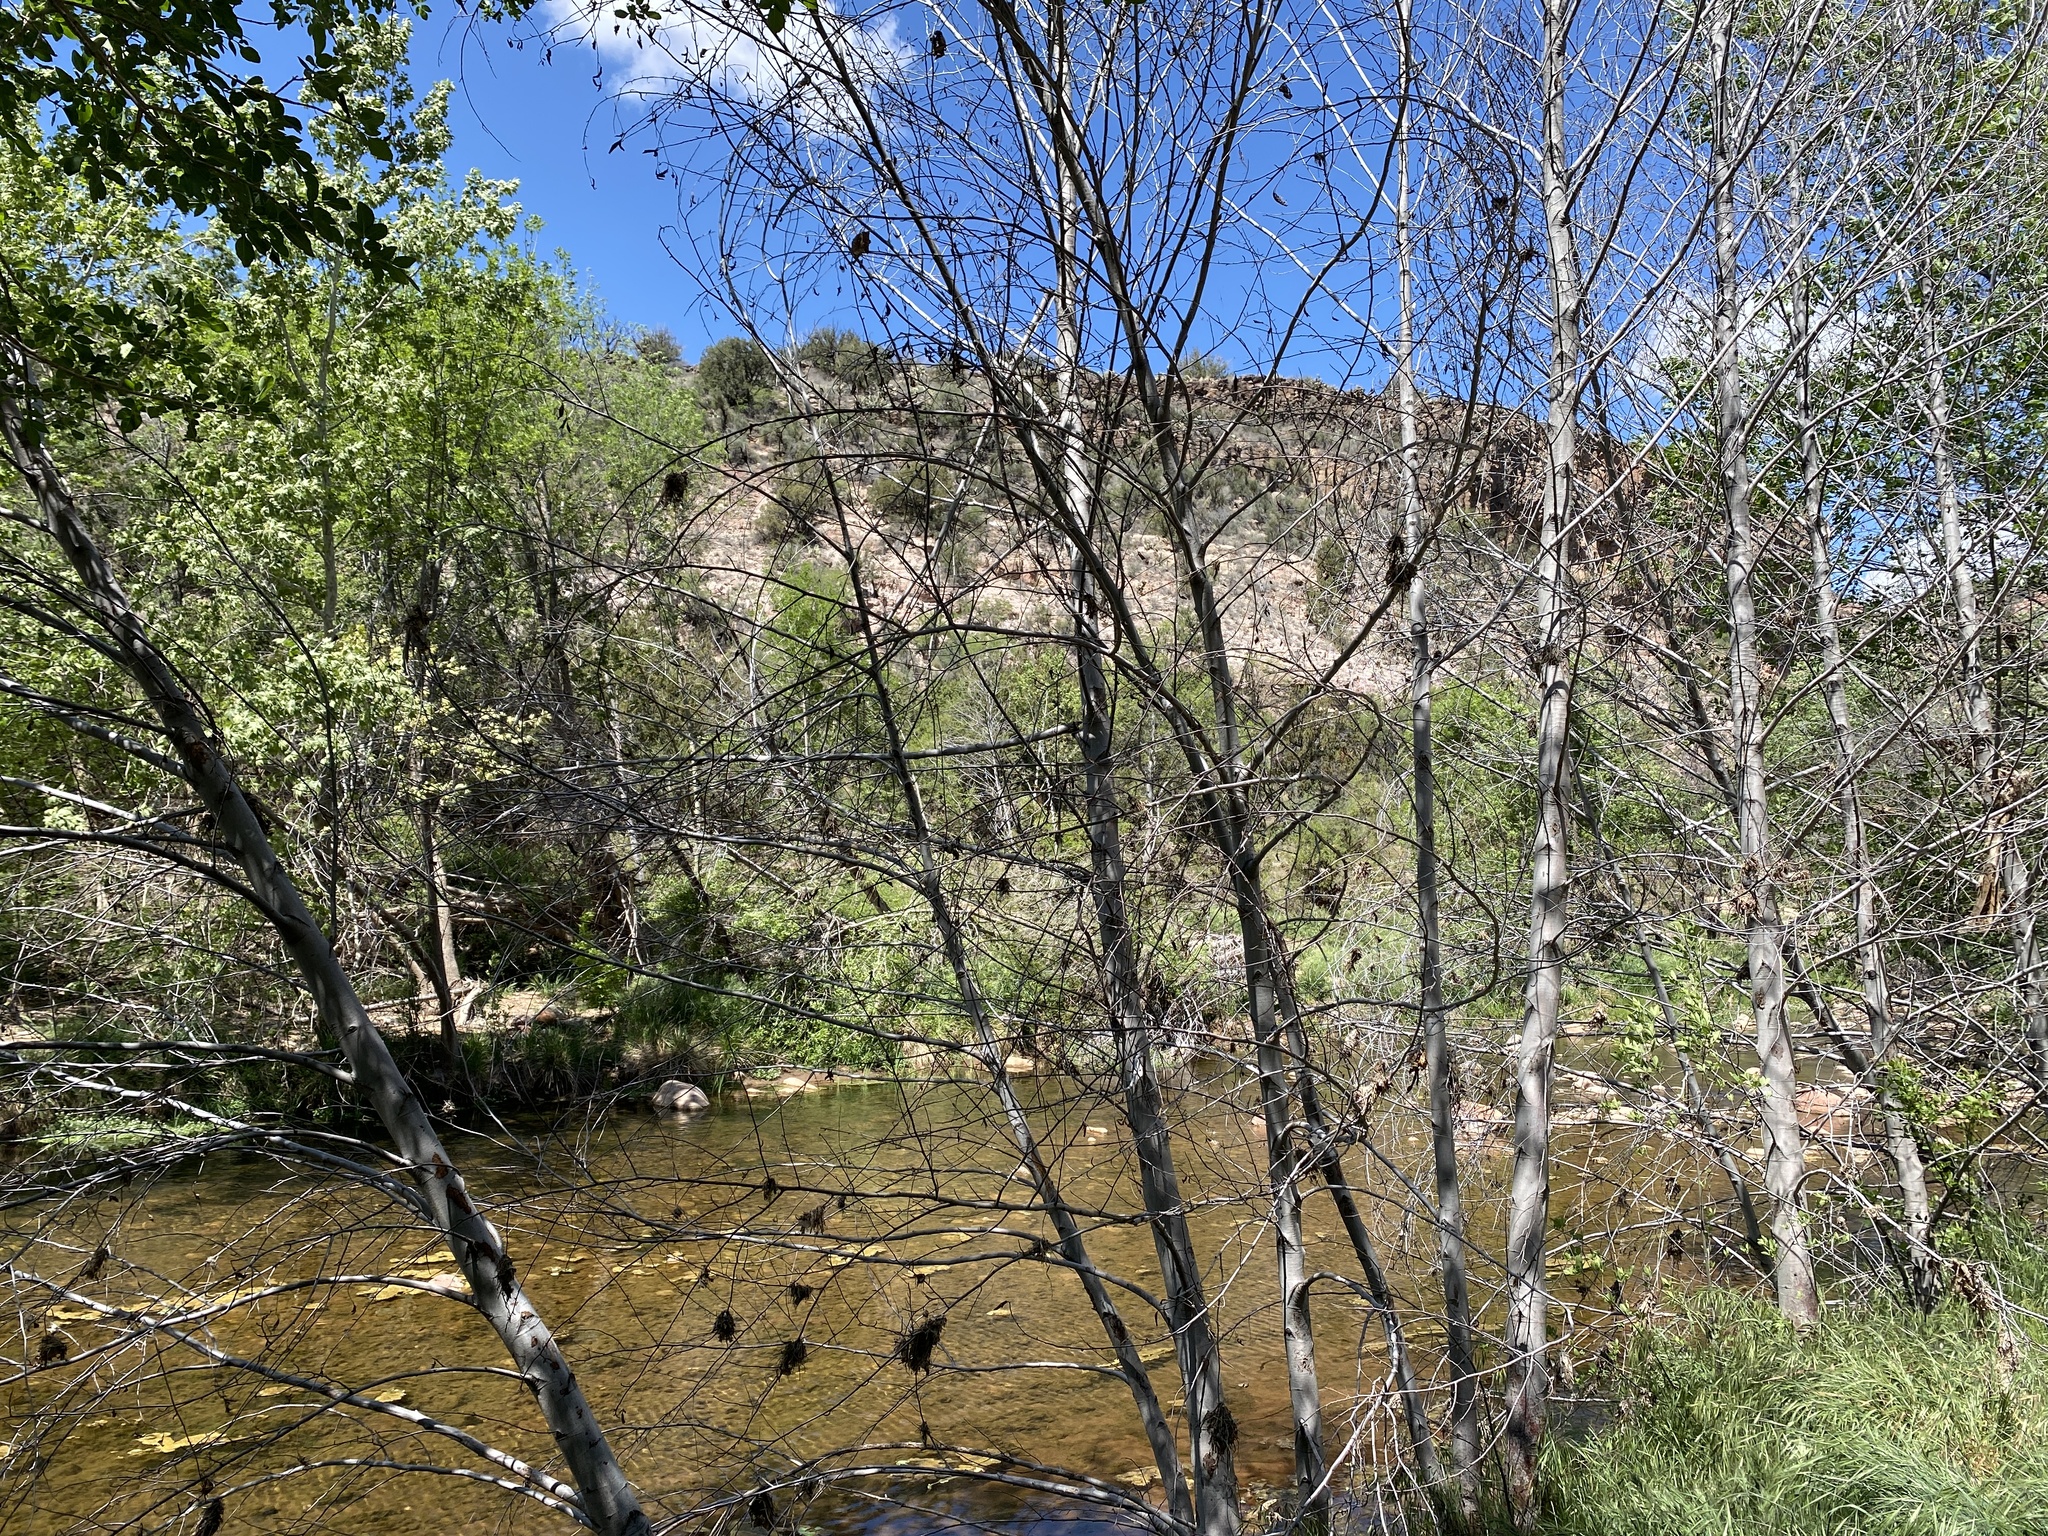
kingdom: Plantae
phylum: Tracheophyta
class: Magnoliopsida
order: Fagales
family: Betulaceae
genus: Alnus
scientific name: Alnus oblongifolia
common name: Arizona alder
